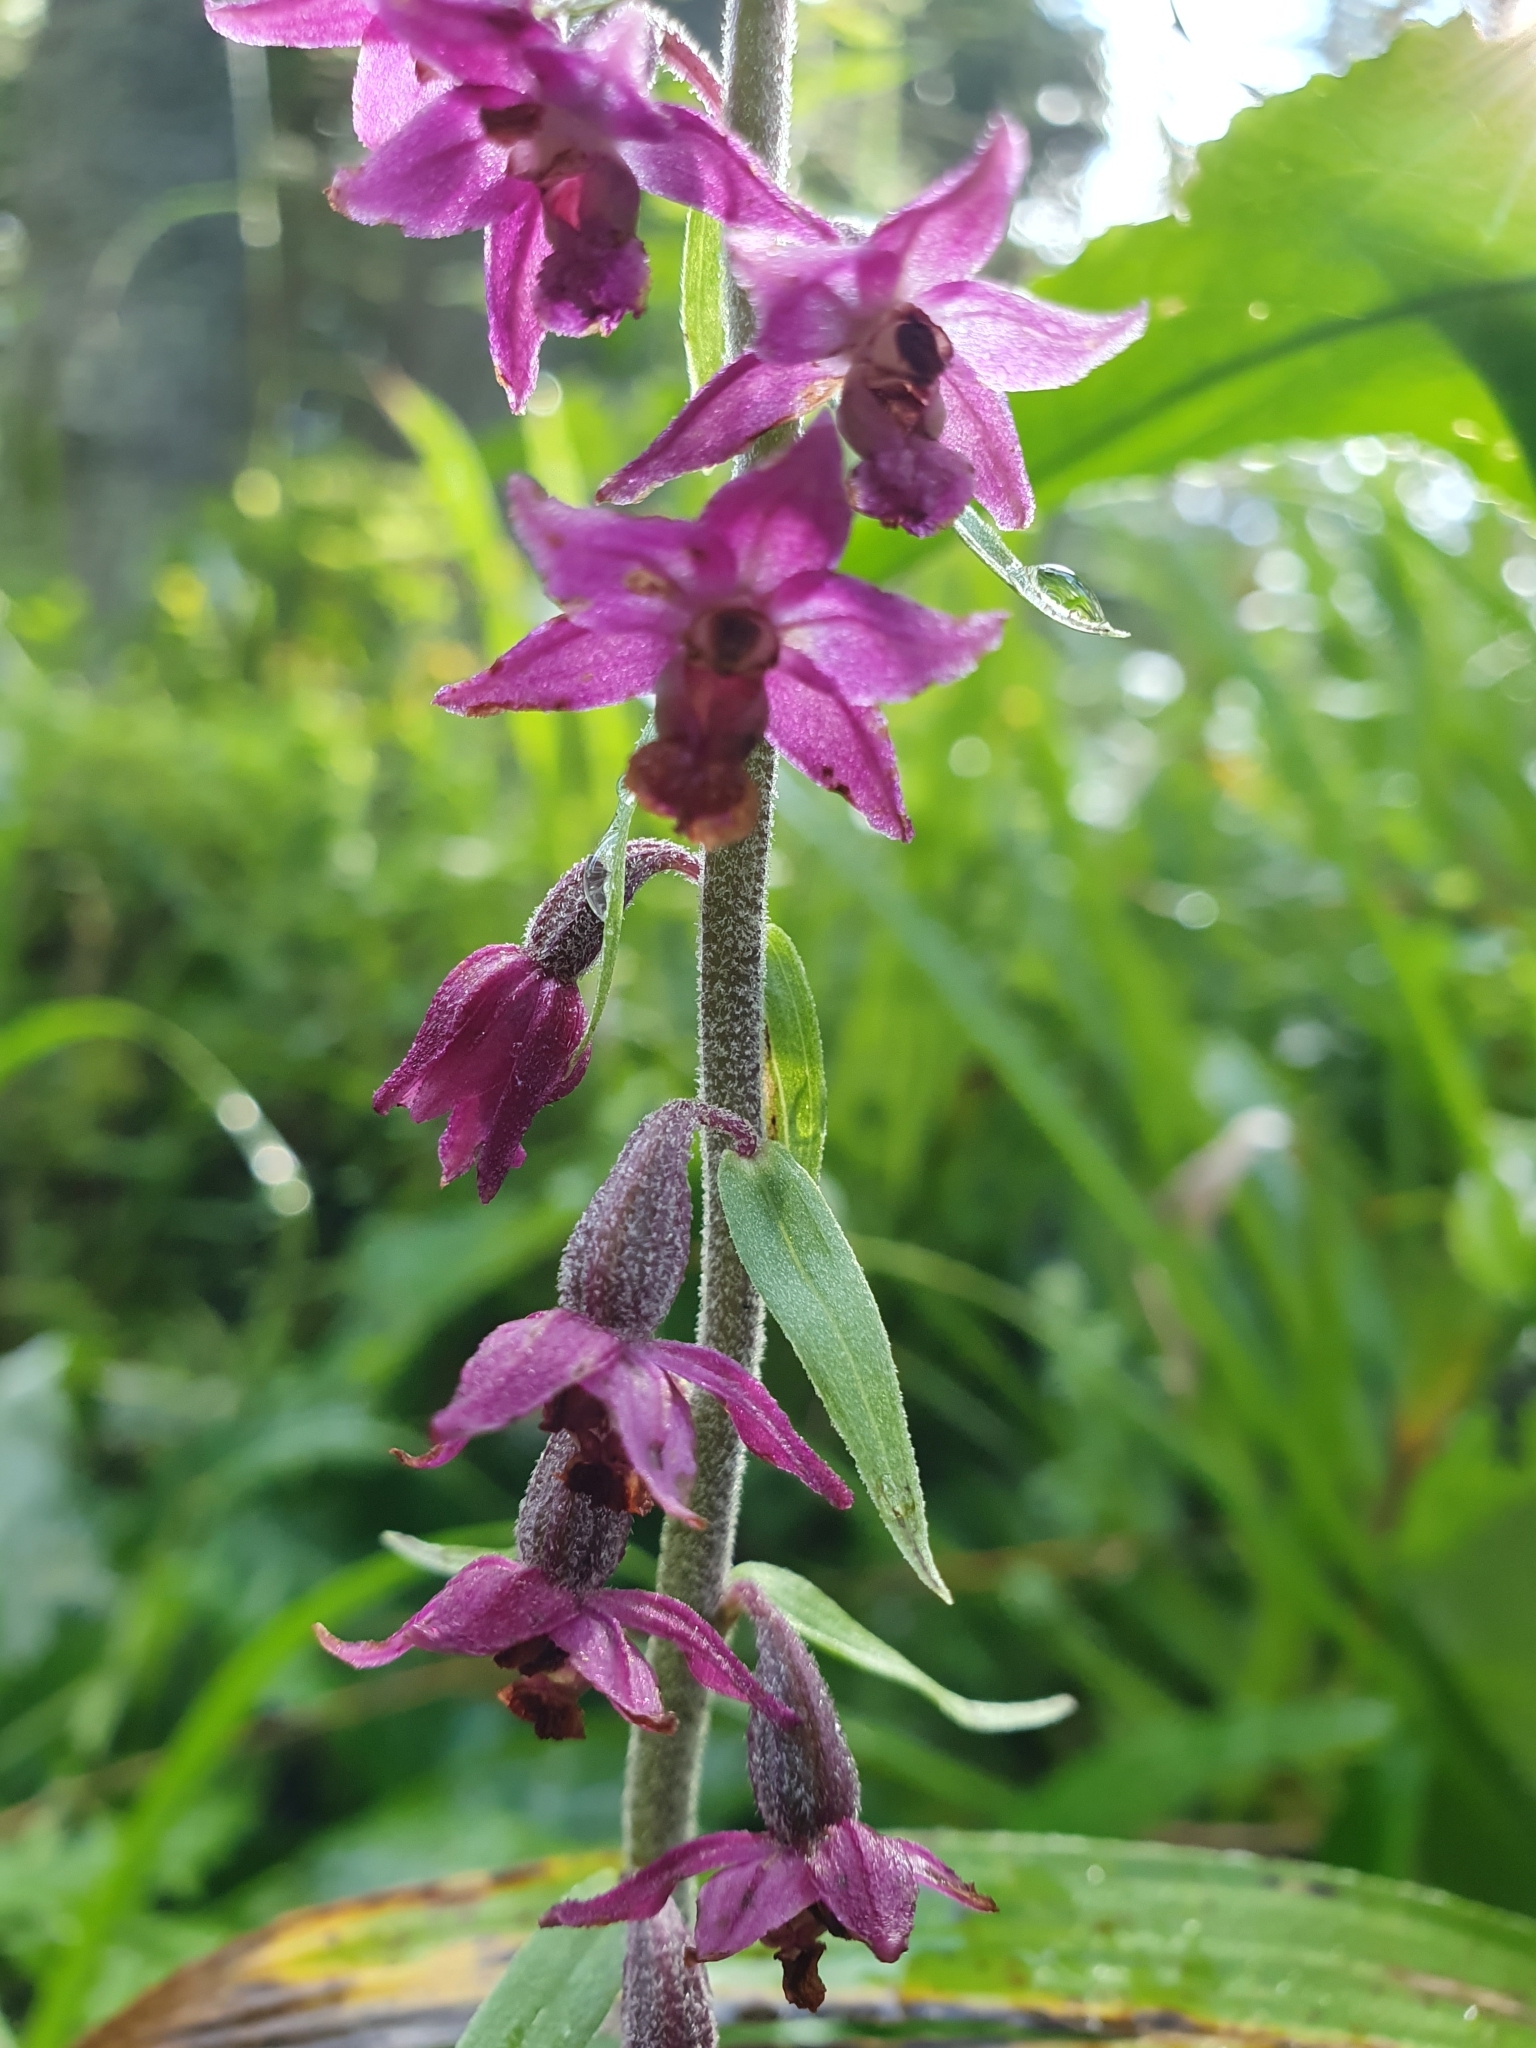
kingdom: Plantae
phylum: Tracheophyta
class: Liliopsida
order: Asparagales
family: Orchidaceae
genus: Epipactis
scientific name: Epipactis atrorubens
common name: Dark-red helleborine
